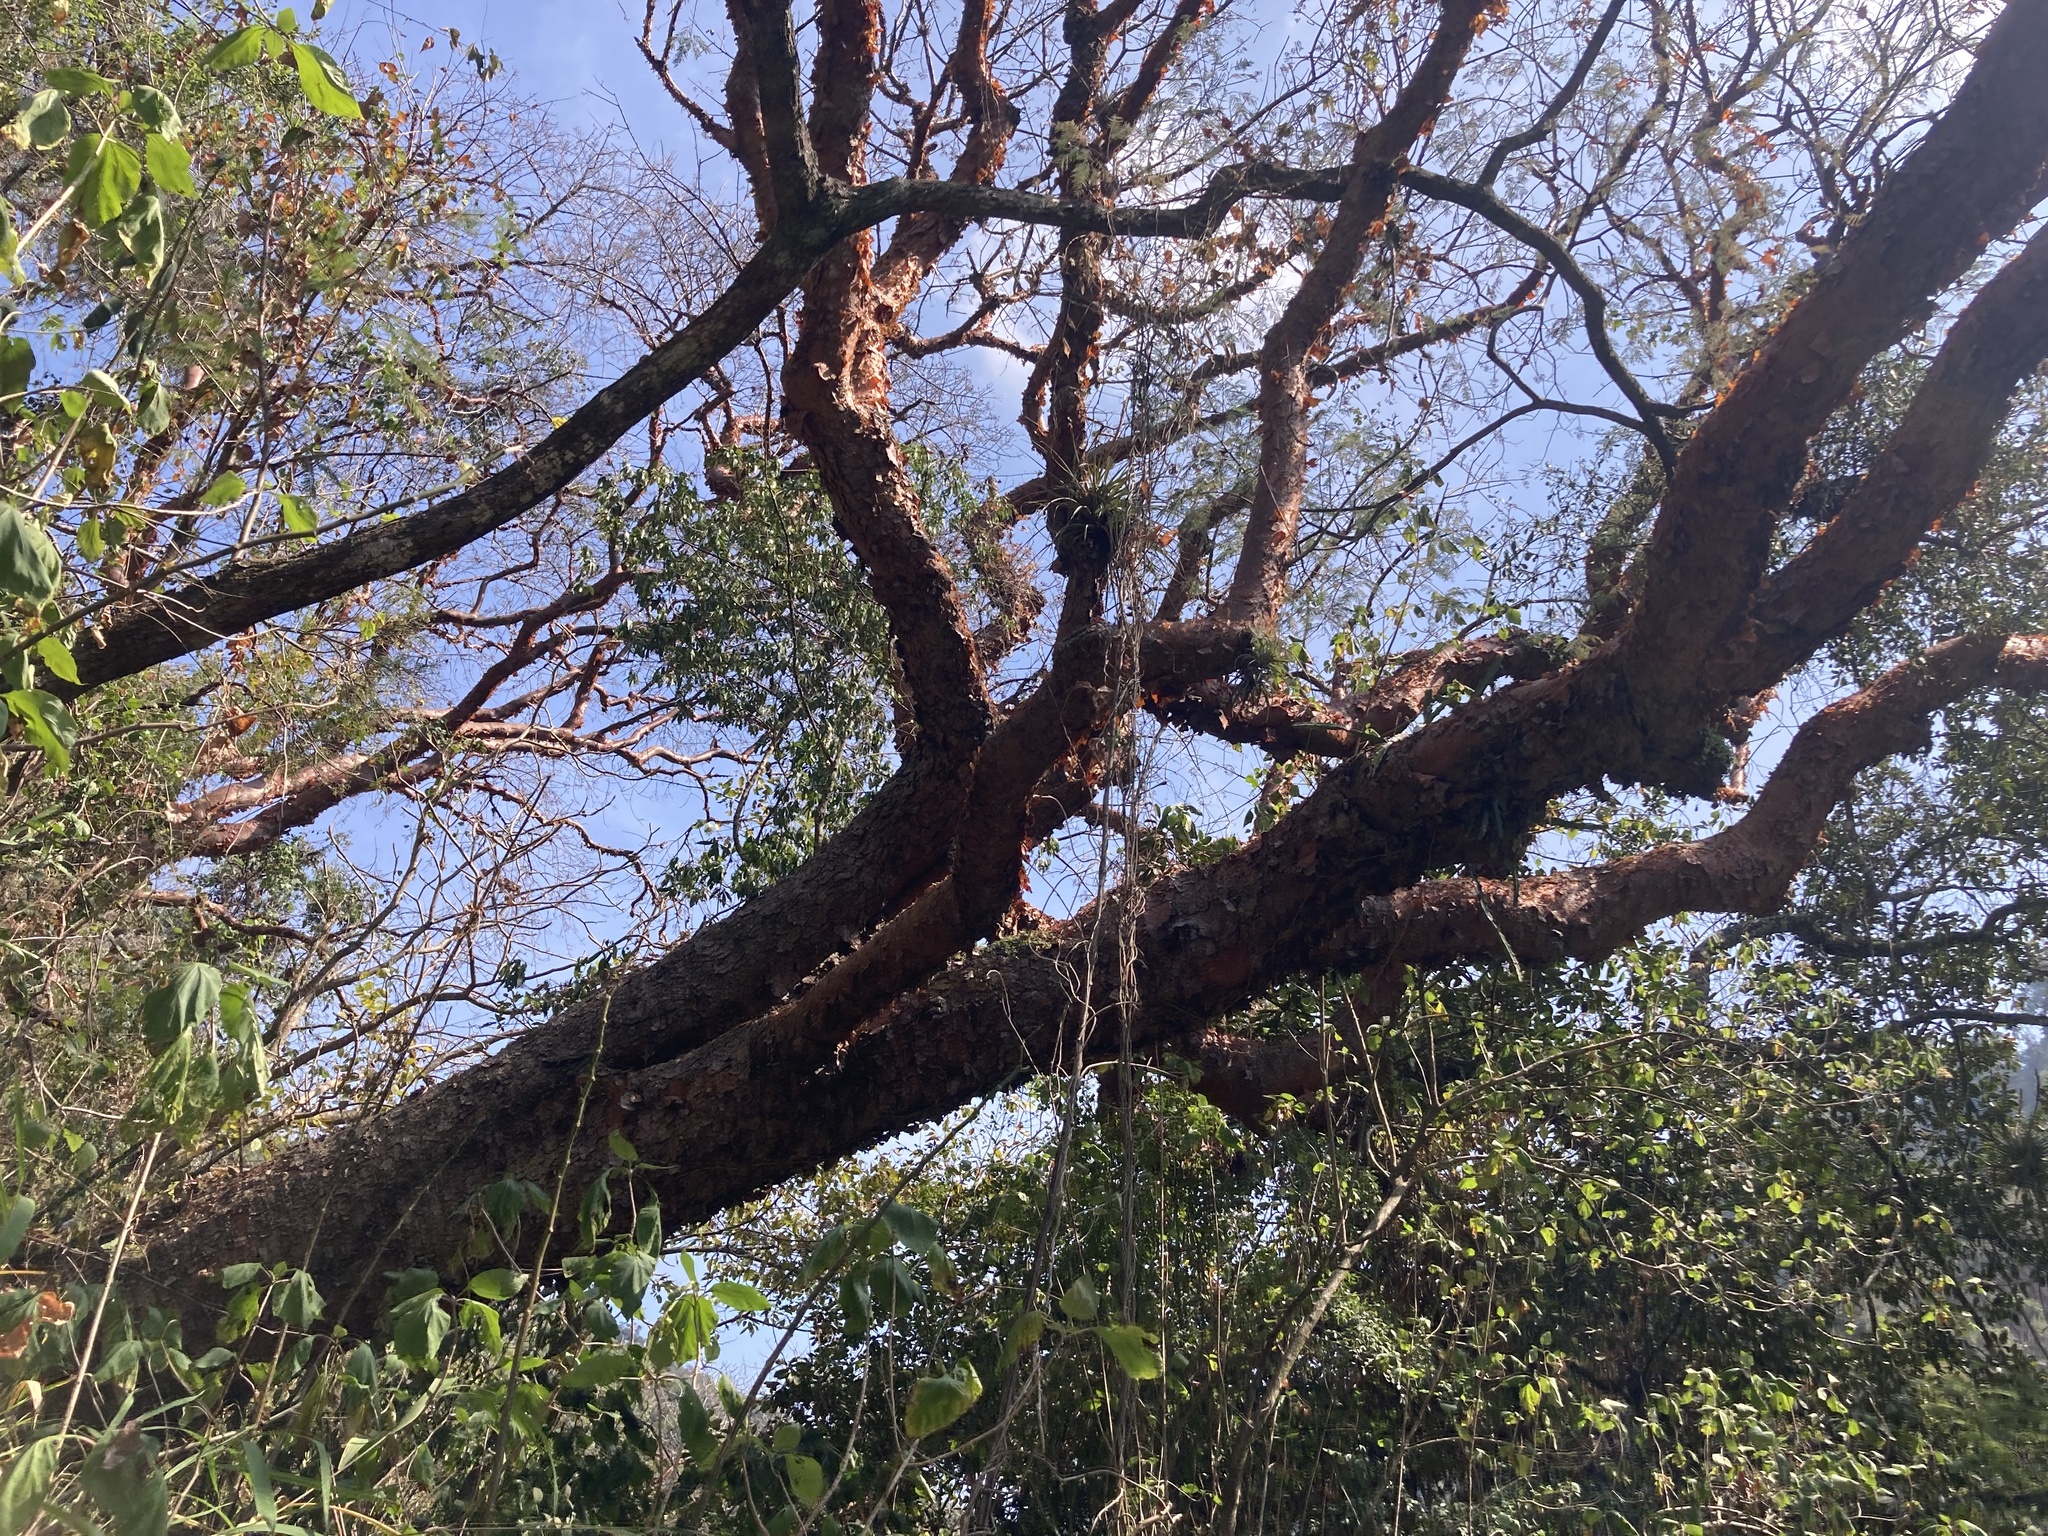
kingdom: Plantae
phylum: Tracheophyta
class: Magnoliopsida
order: Sapindales
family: Burseraceae
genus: Bursera
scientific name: Bursera simaruba
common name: Turpentine tree
